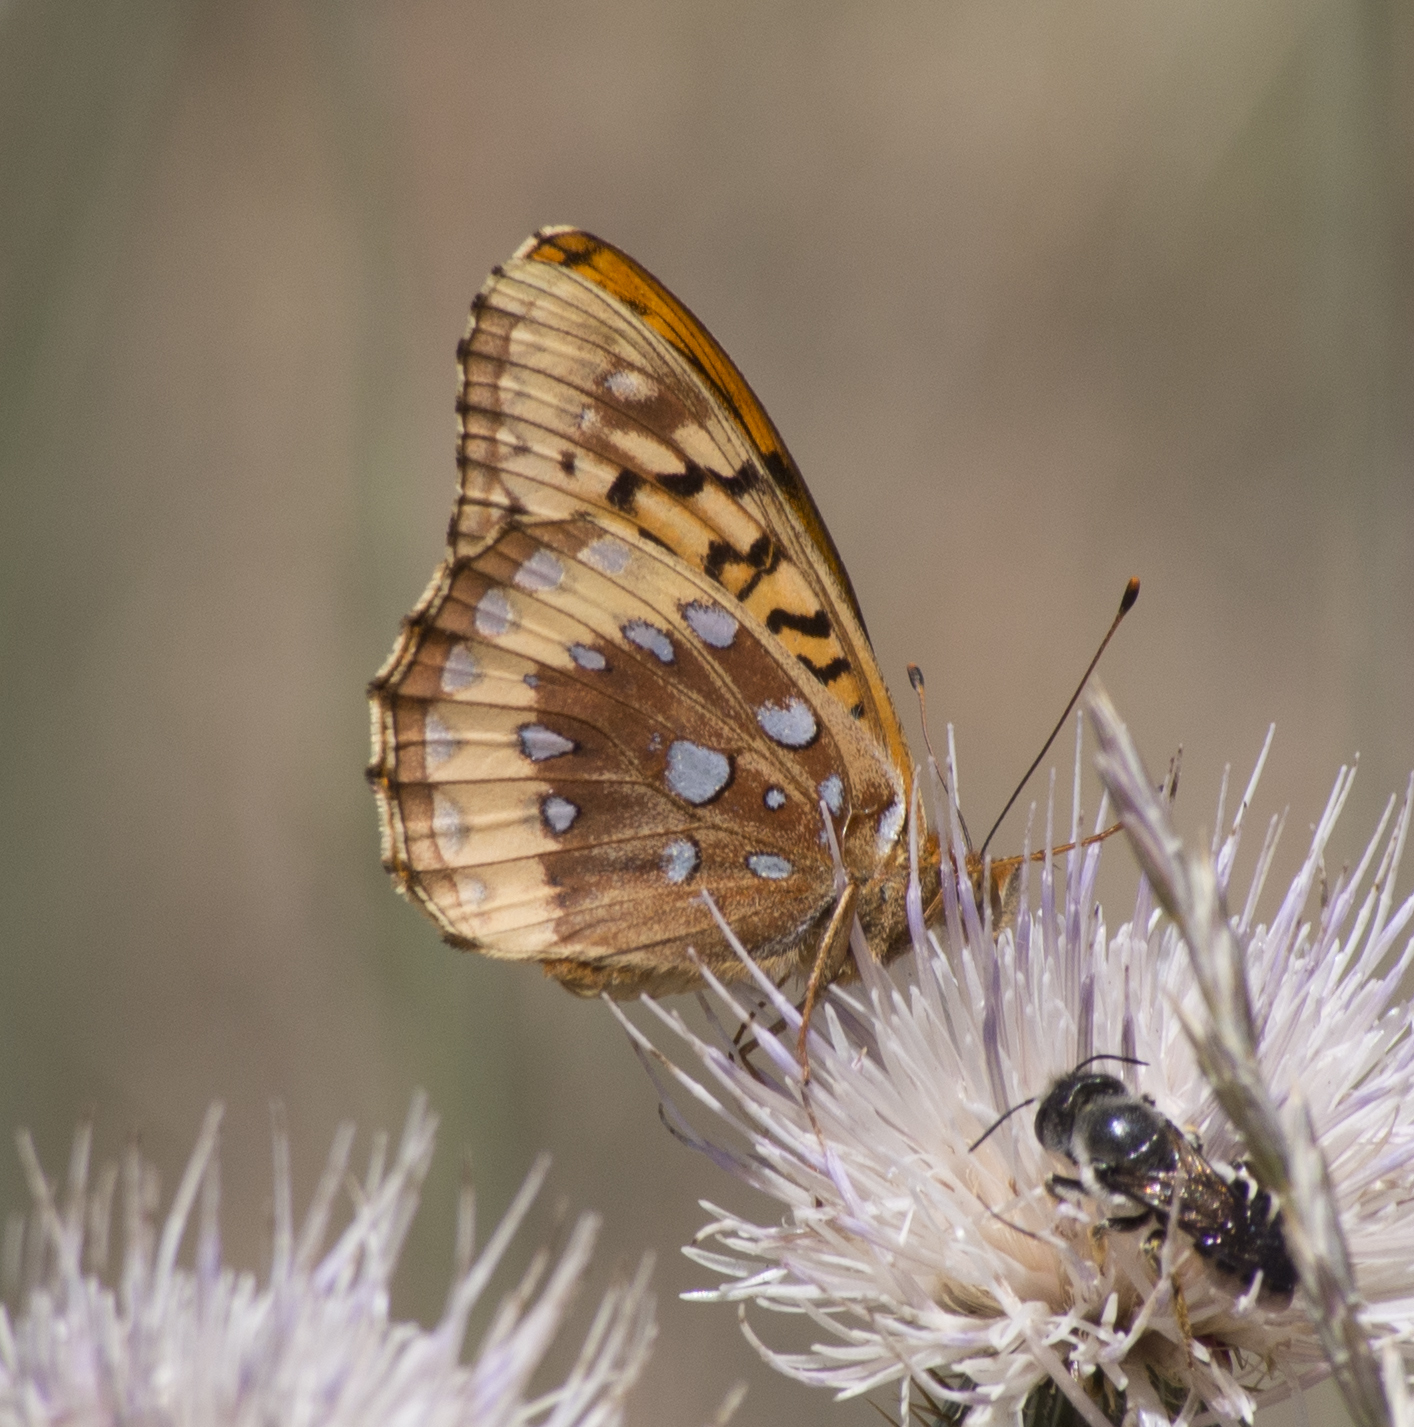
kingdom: Animalia
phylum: Arthropoda
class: Insecta
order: Lepidoptera
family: Nymphalidae
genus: Speyeria
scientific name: Speyeria cybele
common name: Great spangled fritillary
